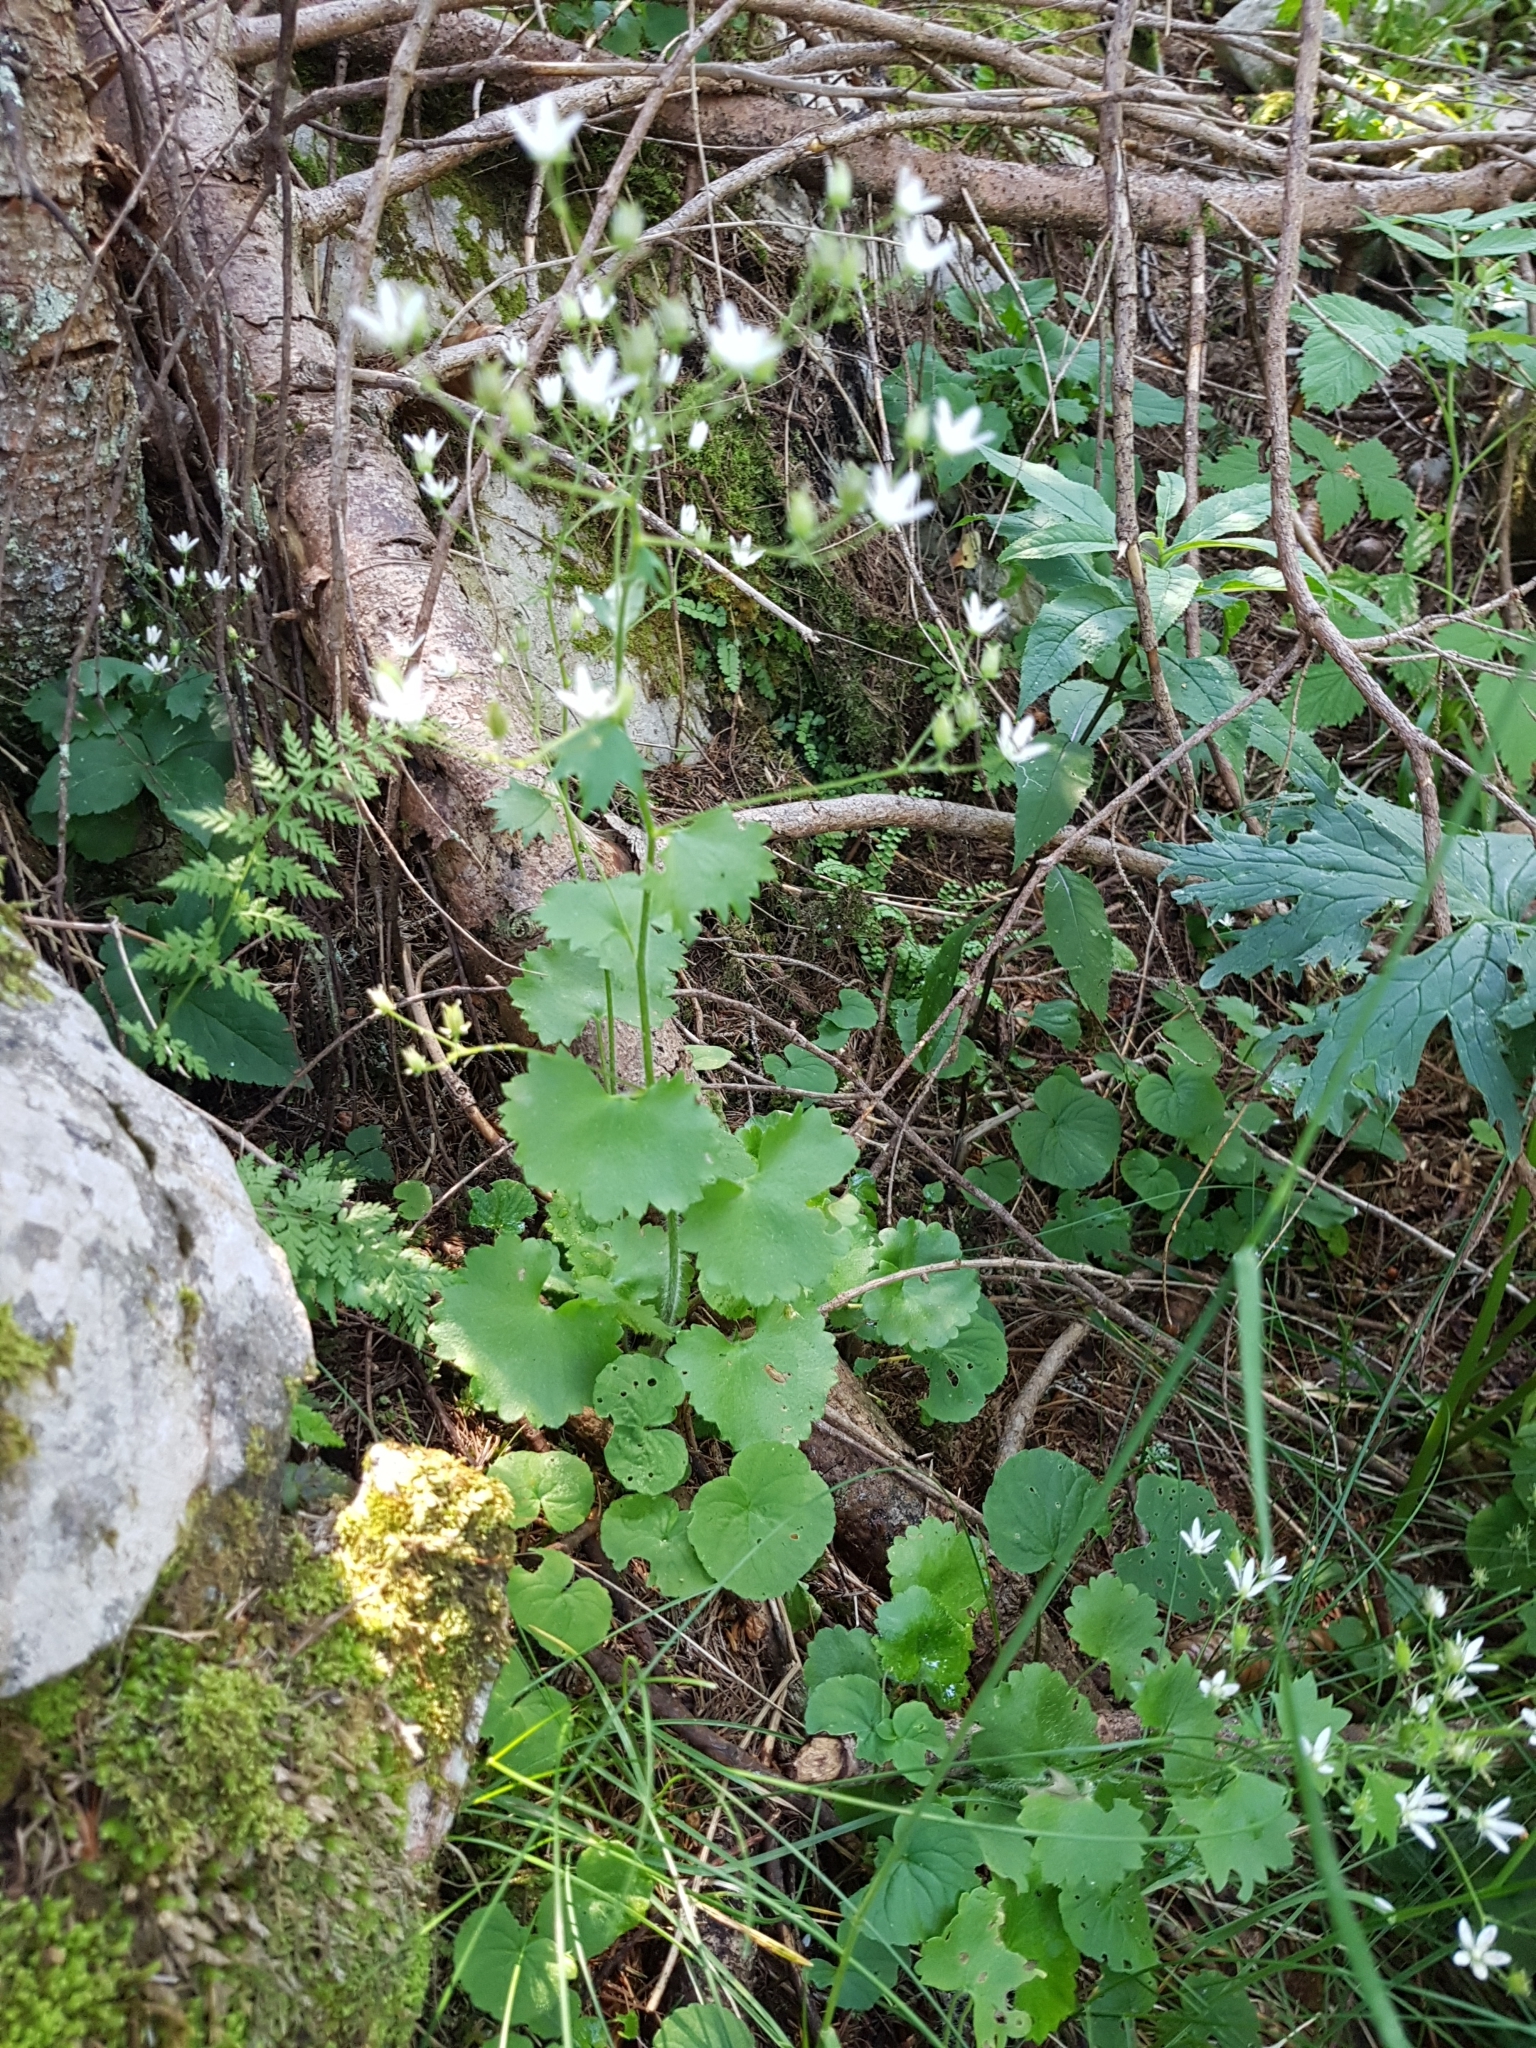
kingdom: Plantae
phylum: Tracheophyta
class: Magnoliopsida
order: Saxifragales
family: Saxifragaceae
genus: Saxifraga
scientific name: Saxifraga rotundifolia
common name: Round-leaved saxifrage
